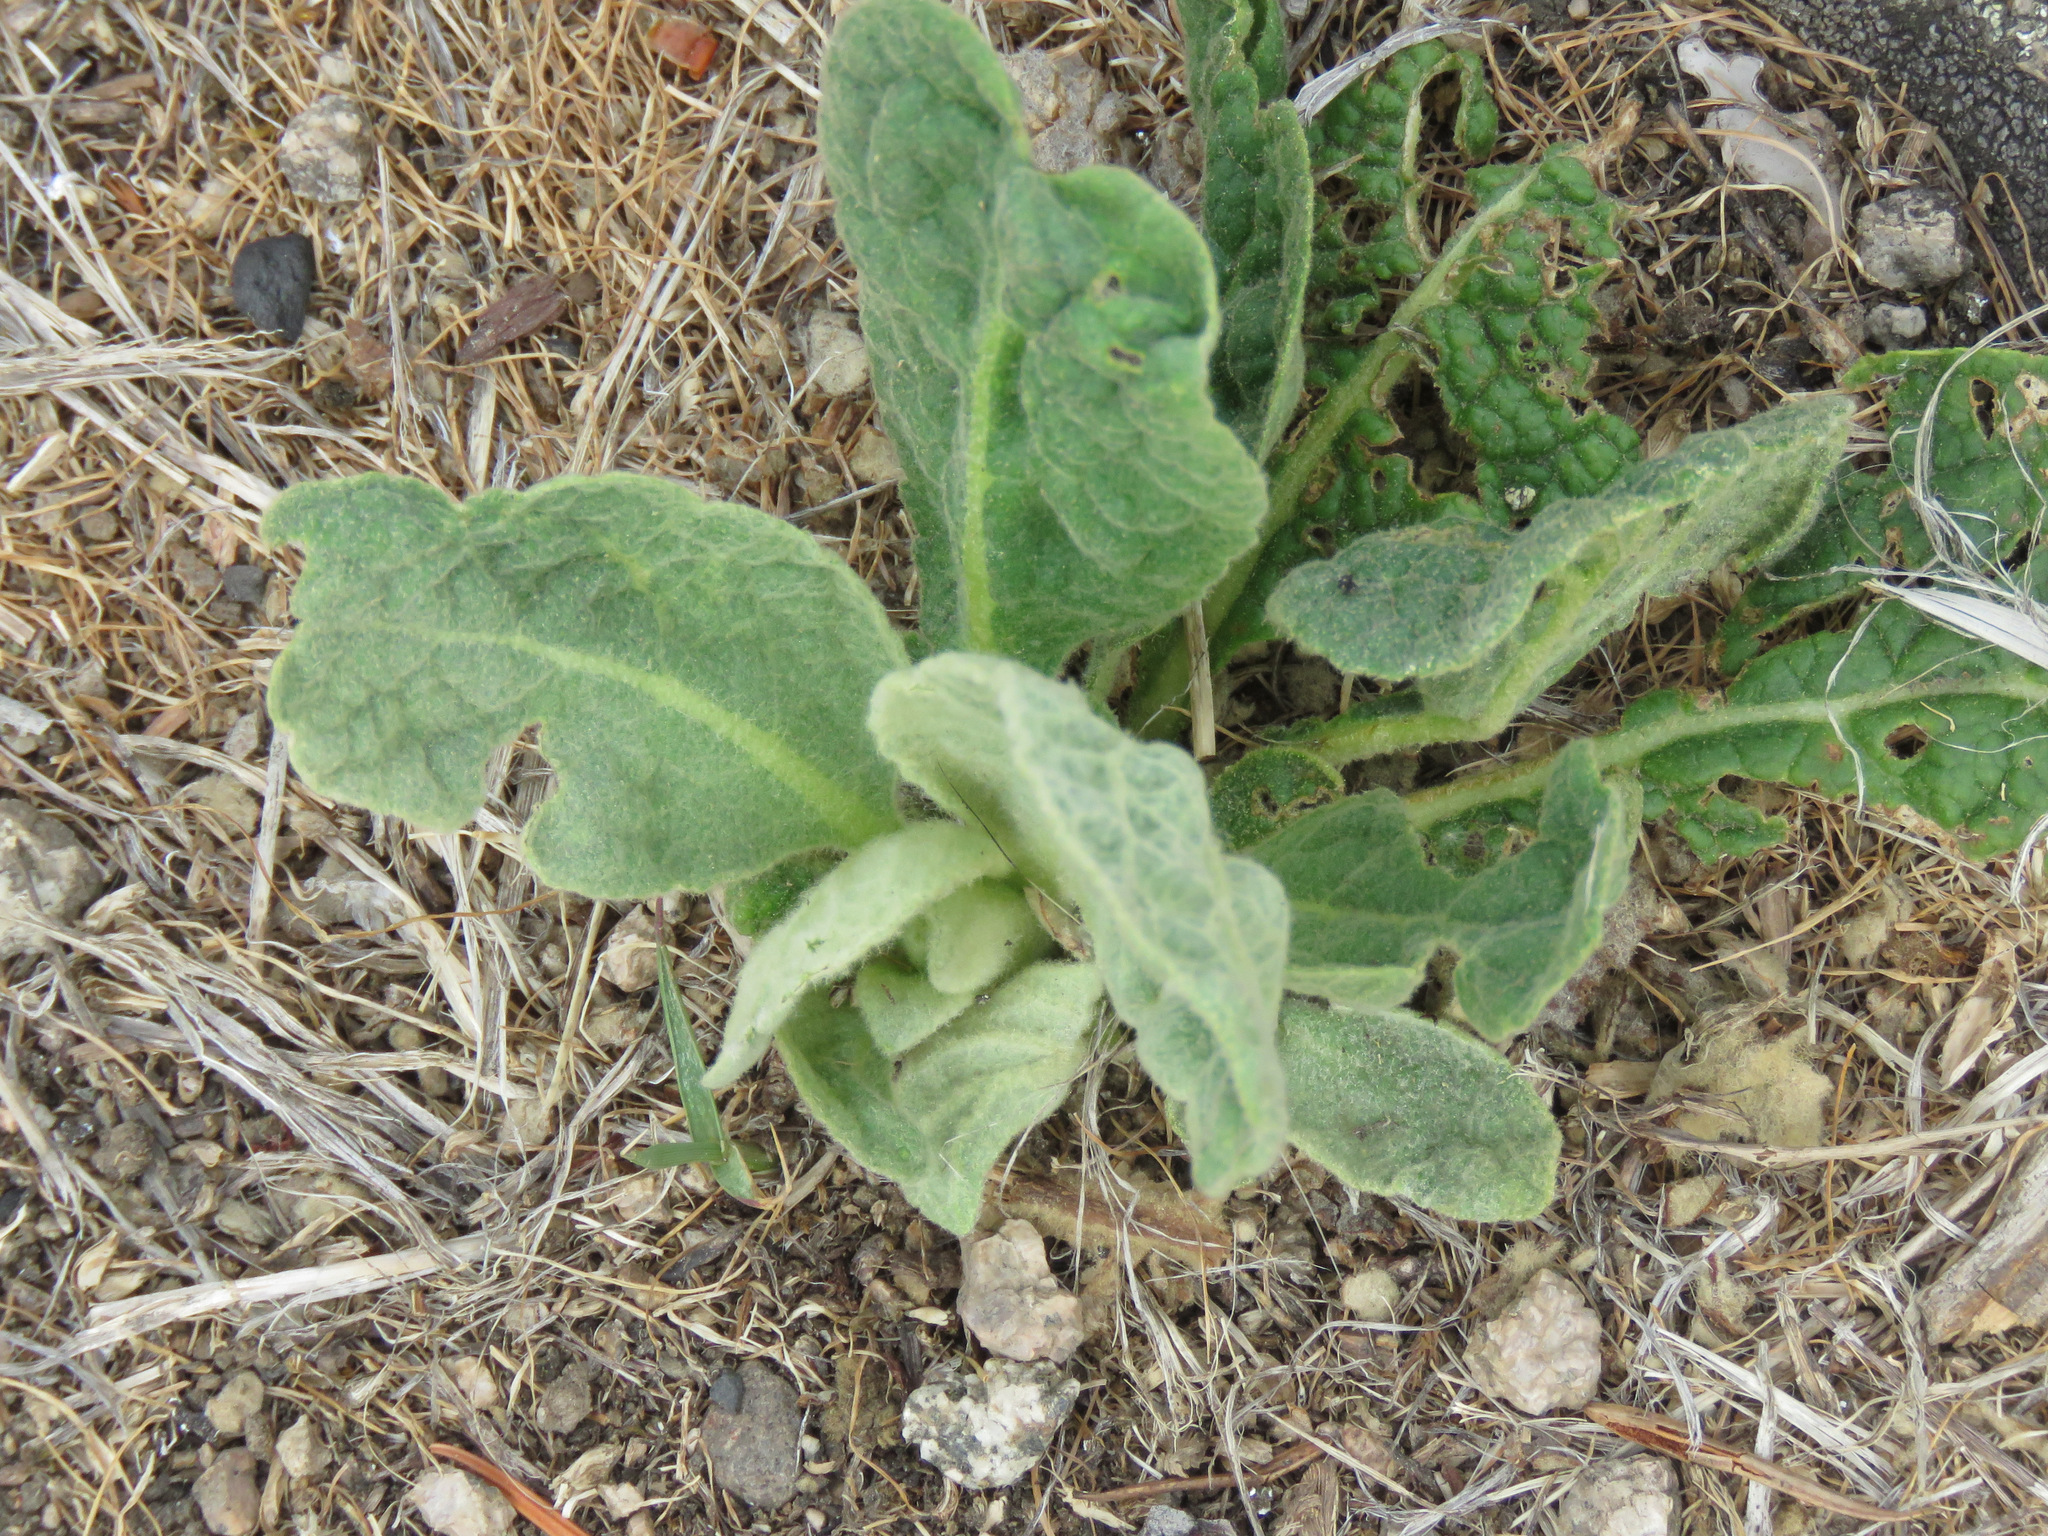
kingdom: Plantae
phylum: Tracheophyta
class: Magnoliopsida
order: Lamiales
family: Scrophulariaceae
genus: Verbascum
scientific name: Verbascum thapsus
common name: Common mullein
